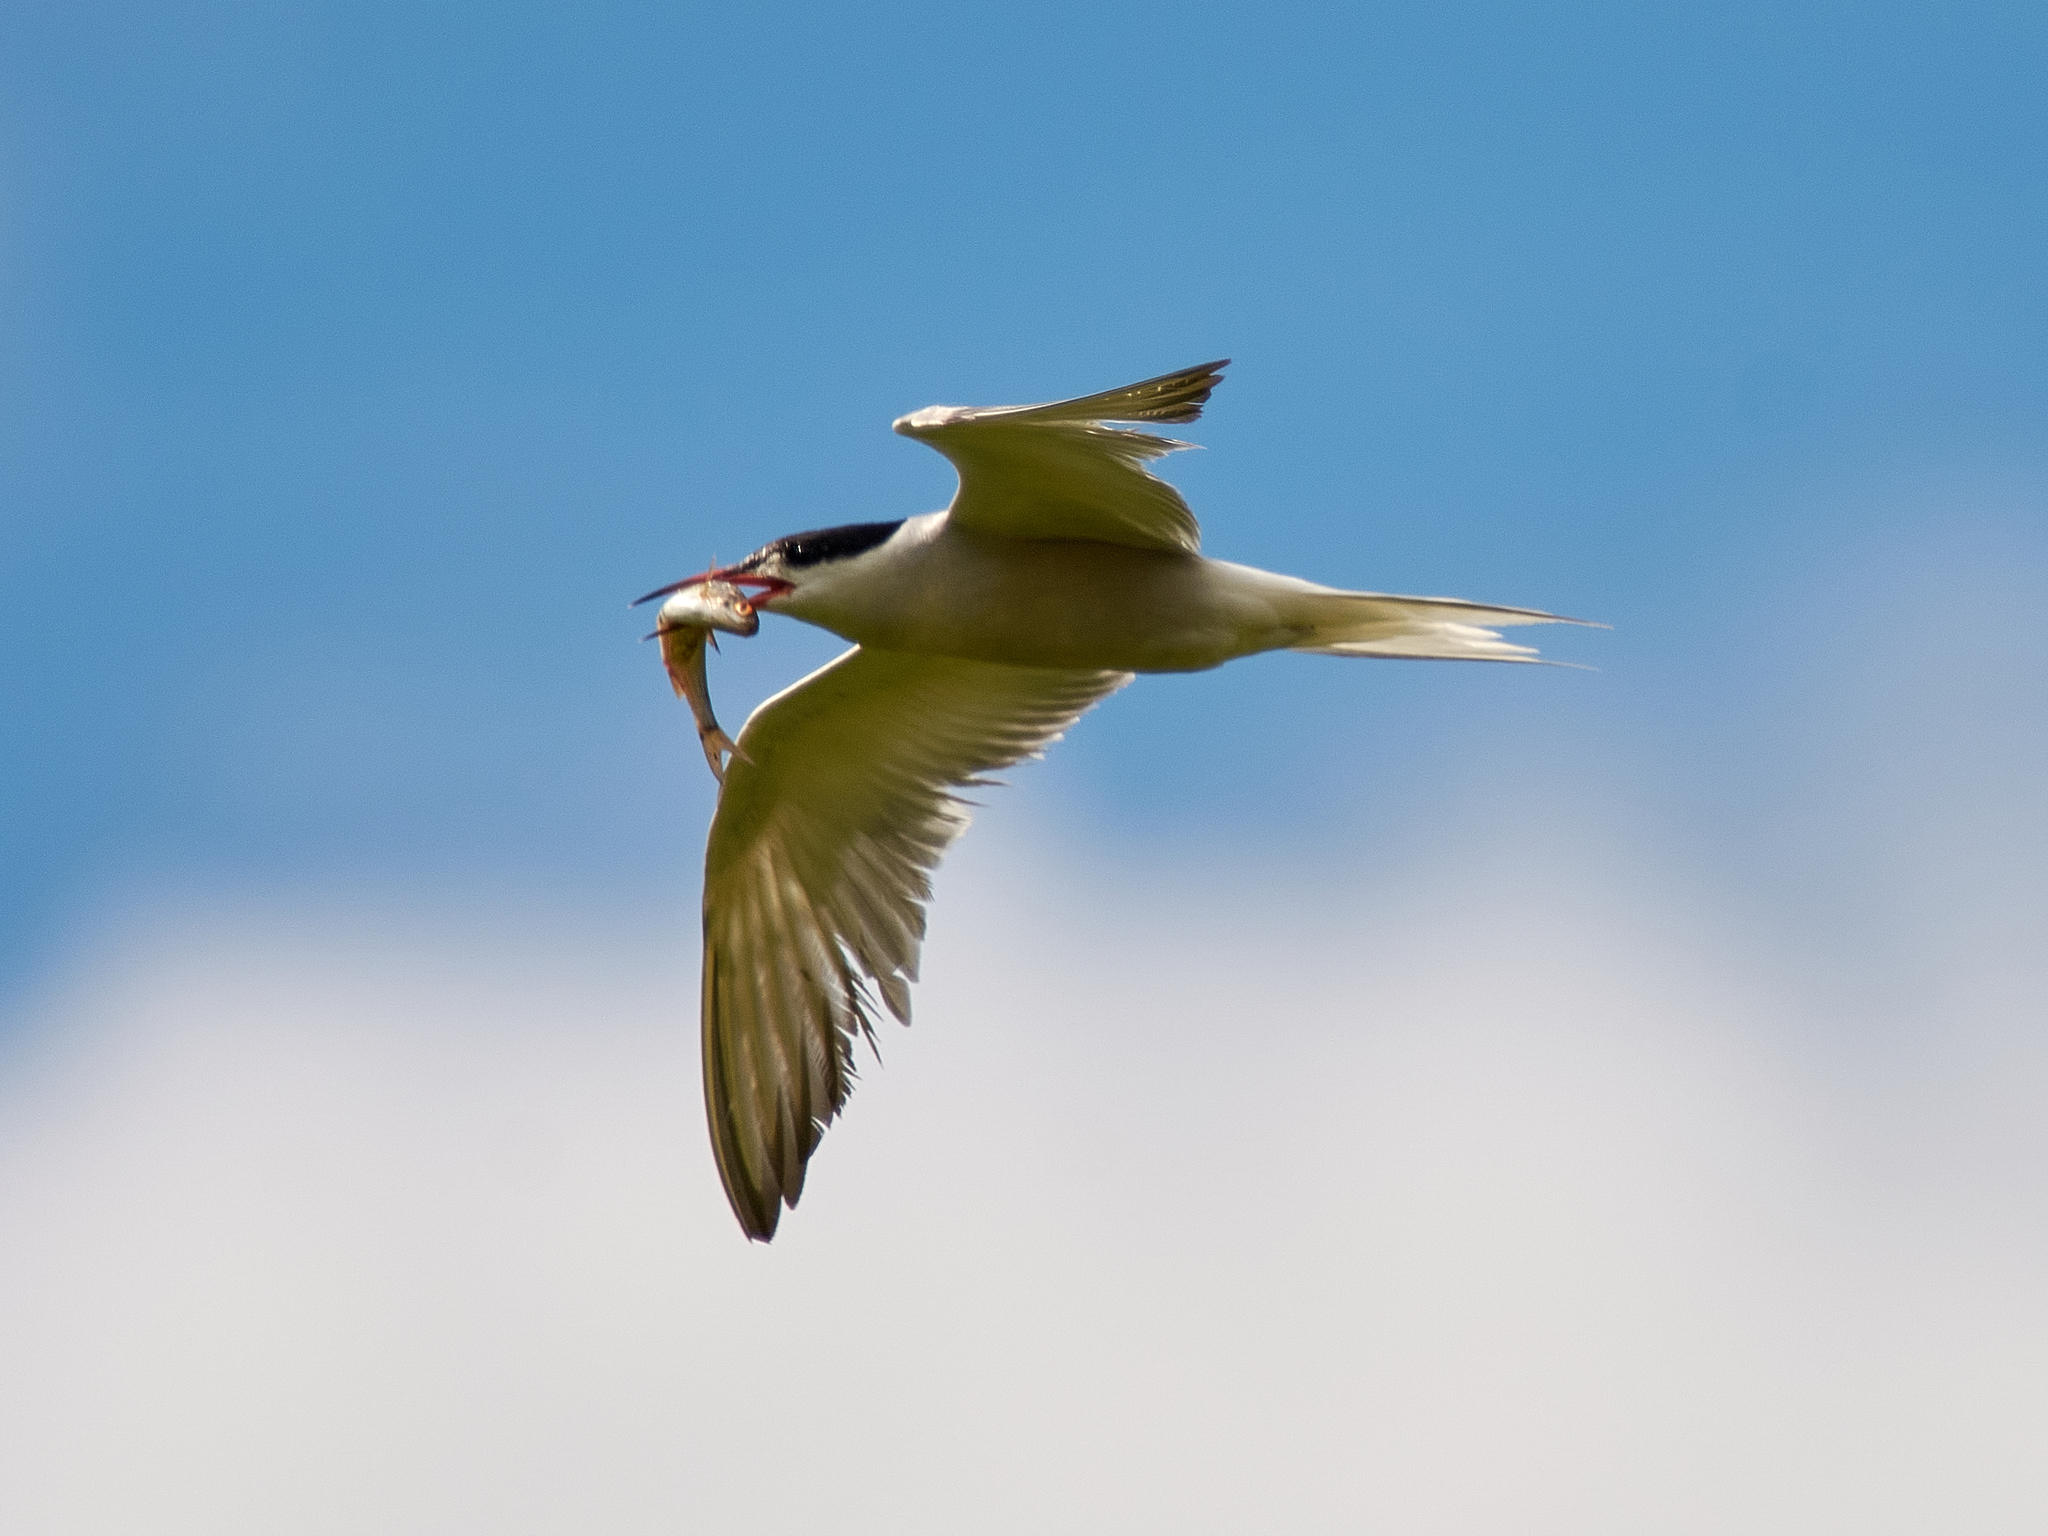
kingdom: Animalia
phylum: Chordata
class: Aves
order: Charadriiformes
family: Laridae
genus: Sterna
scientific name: Sterna hirundo
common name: Common tern
